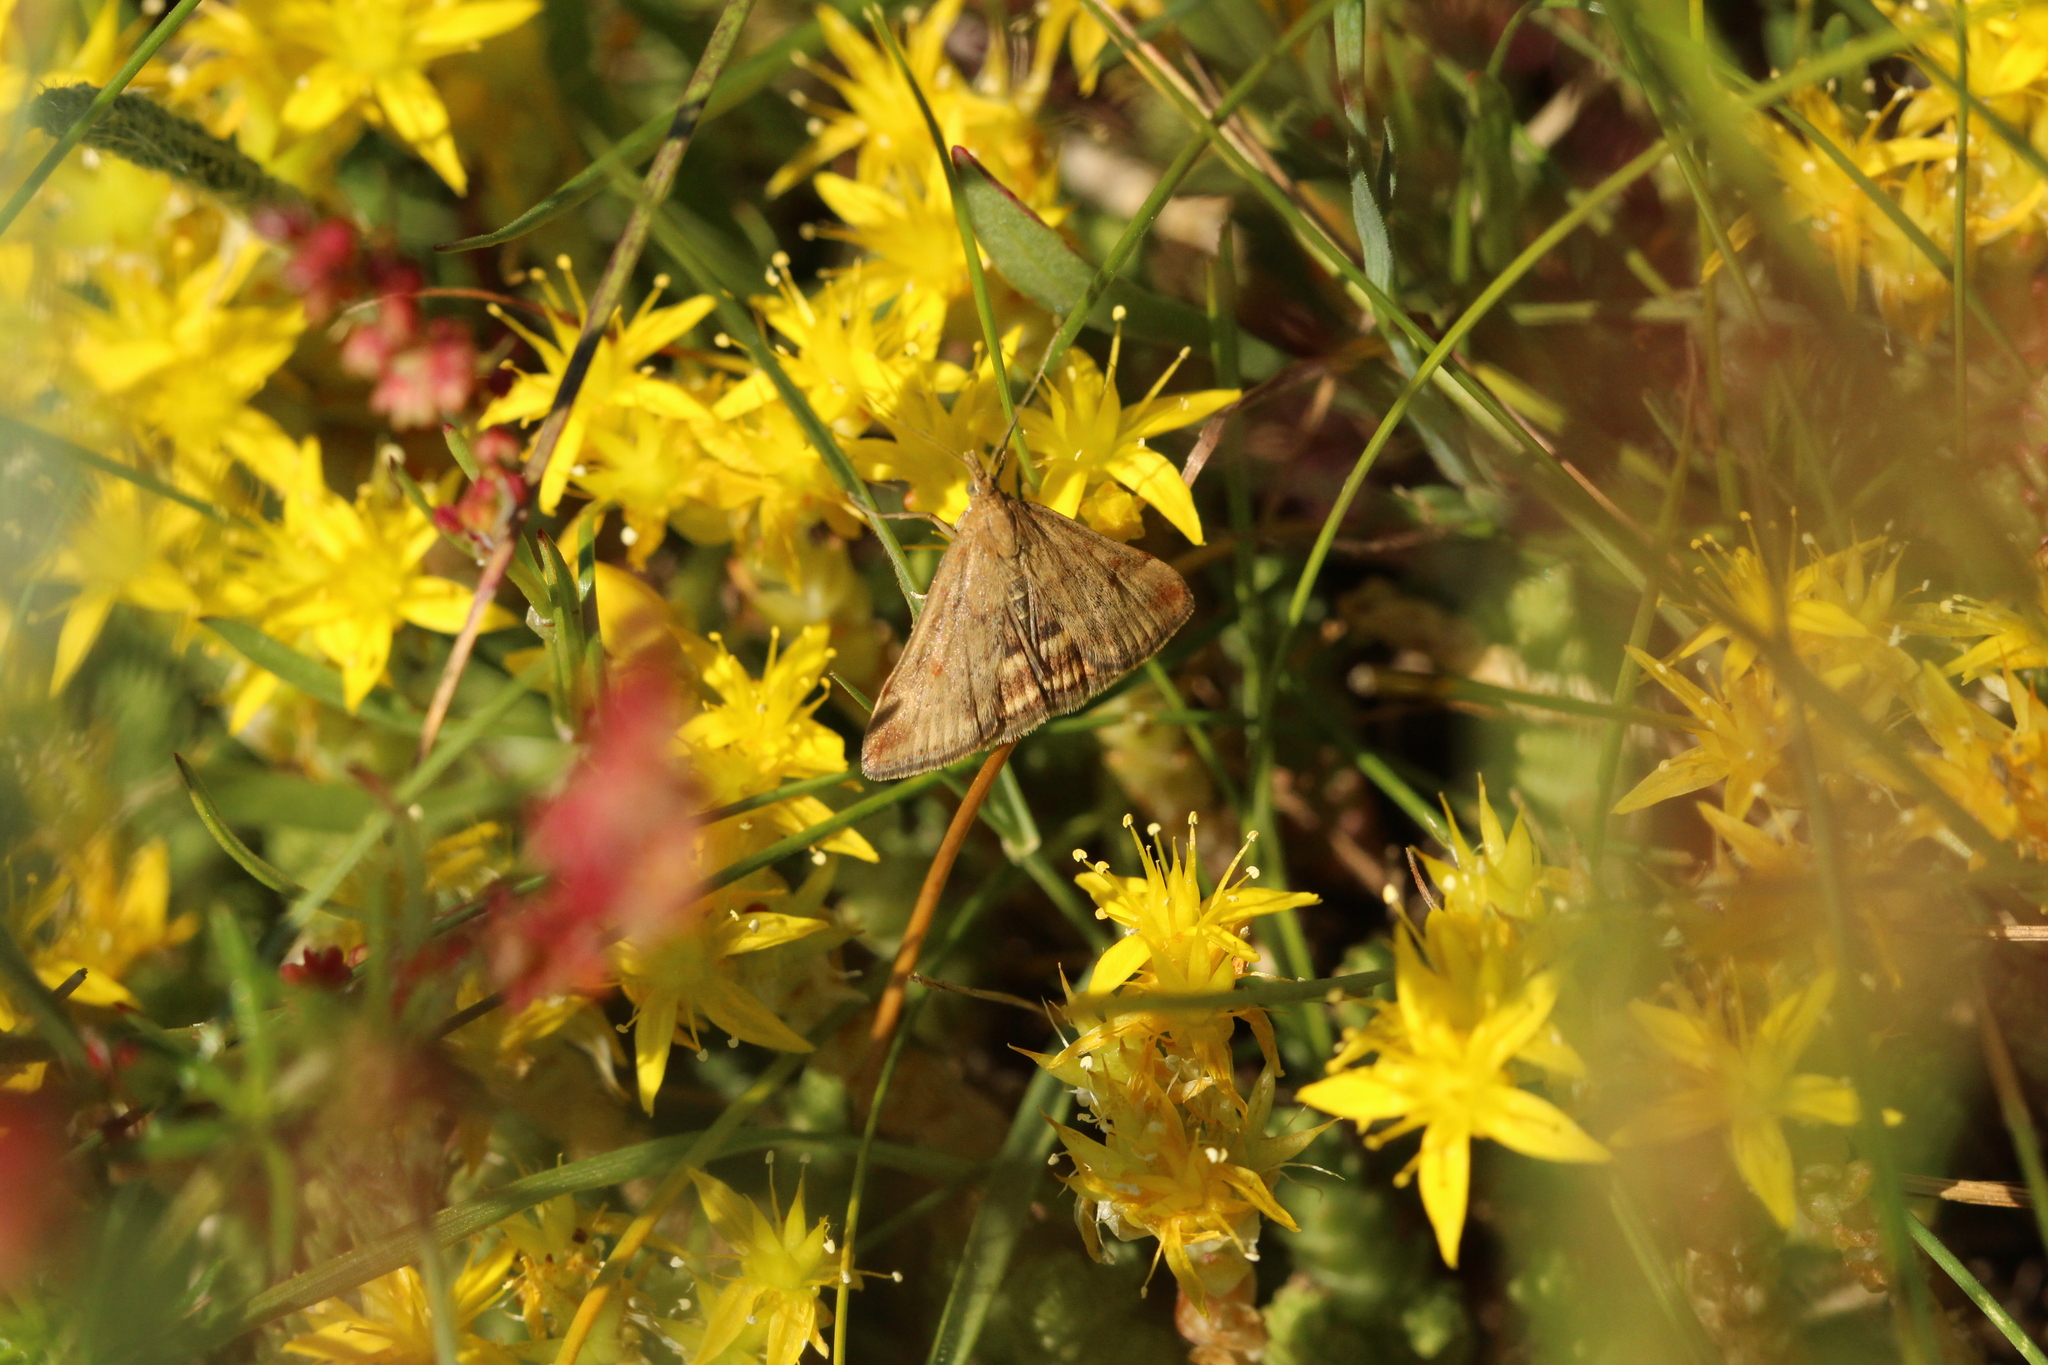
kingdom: Animalia
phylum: Arthropoda
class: Insecta
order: Lepidoptera
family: Crambidae
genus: Pyrausta
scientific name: Pyrausta despicata
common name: Straw-barred pearl
